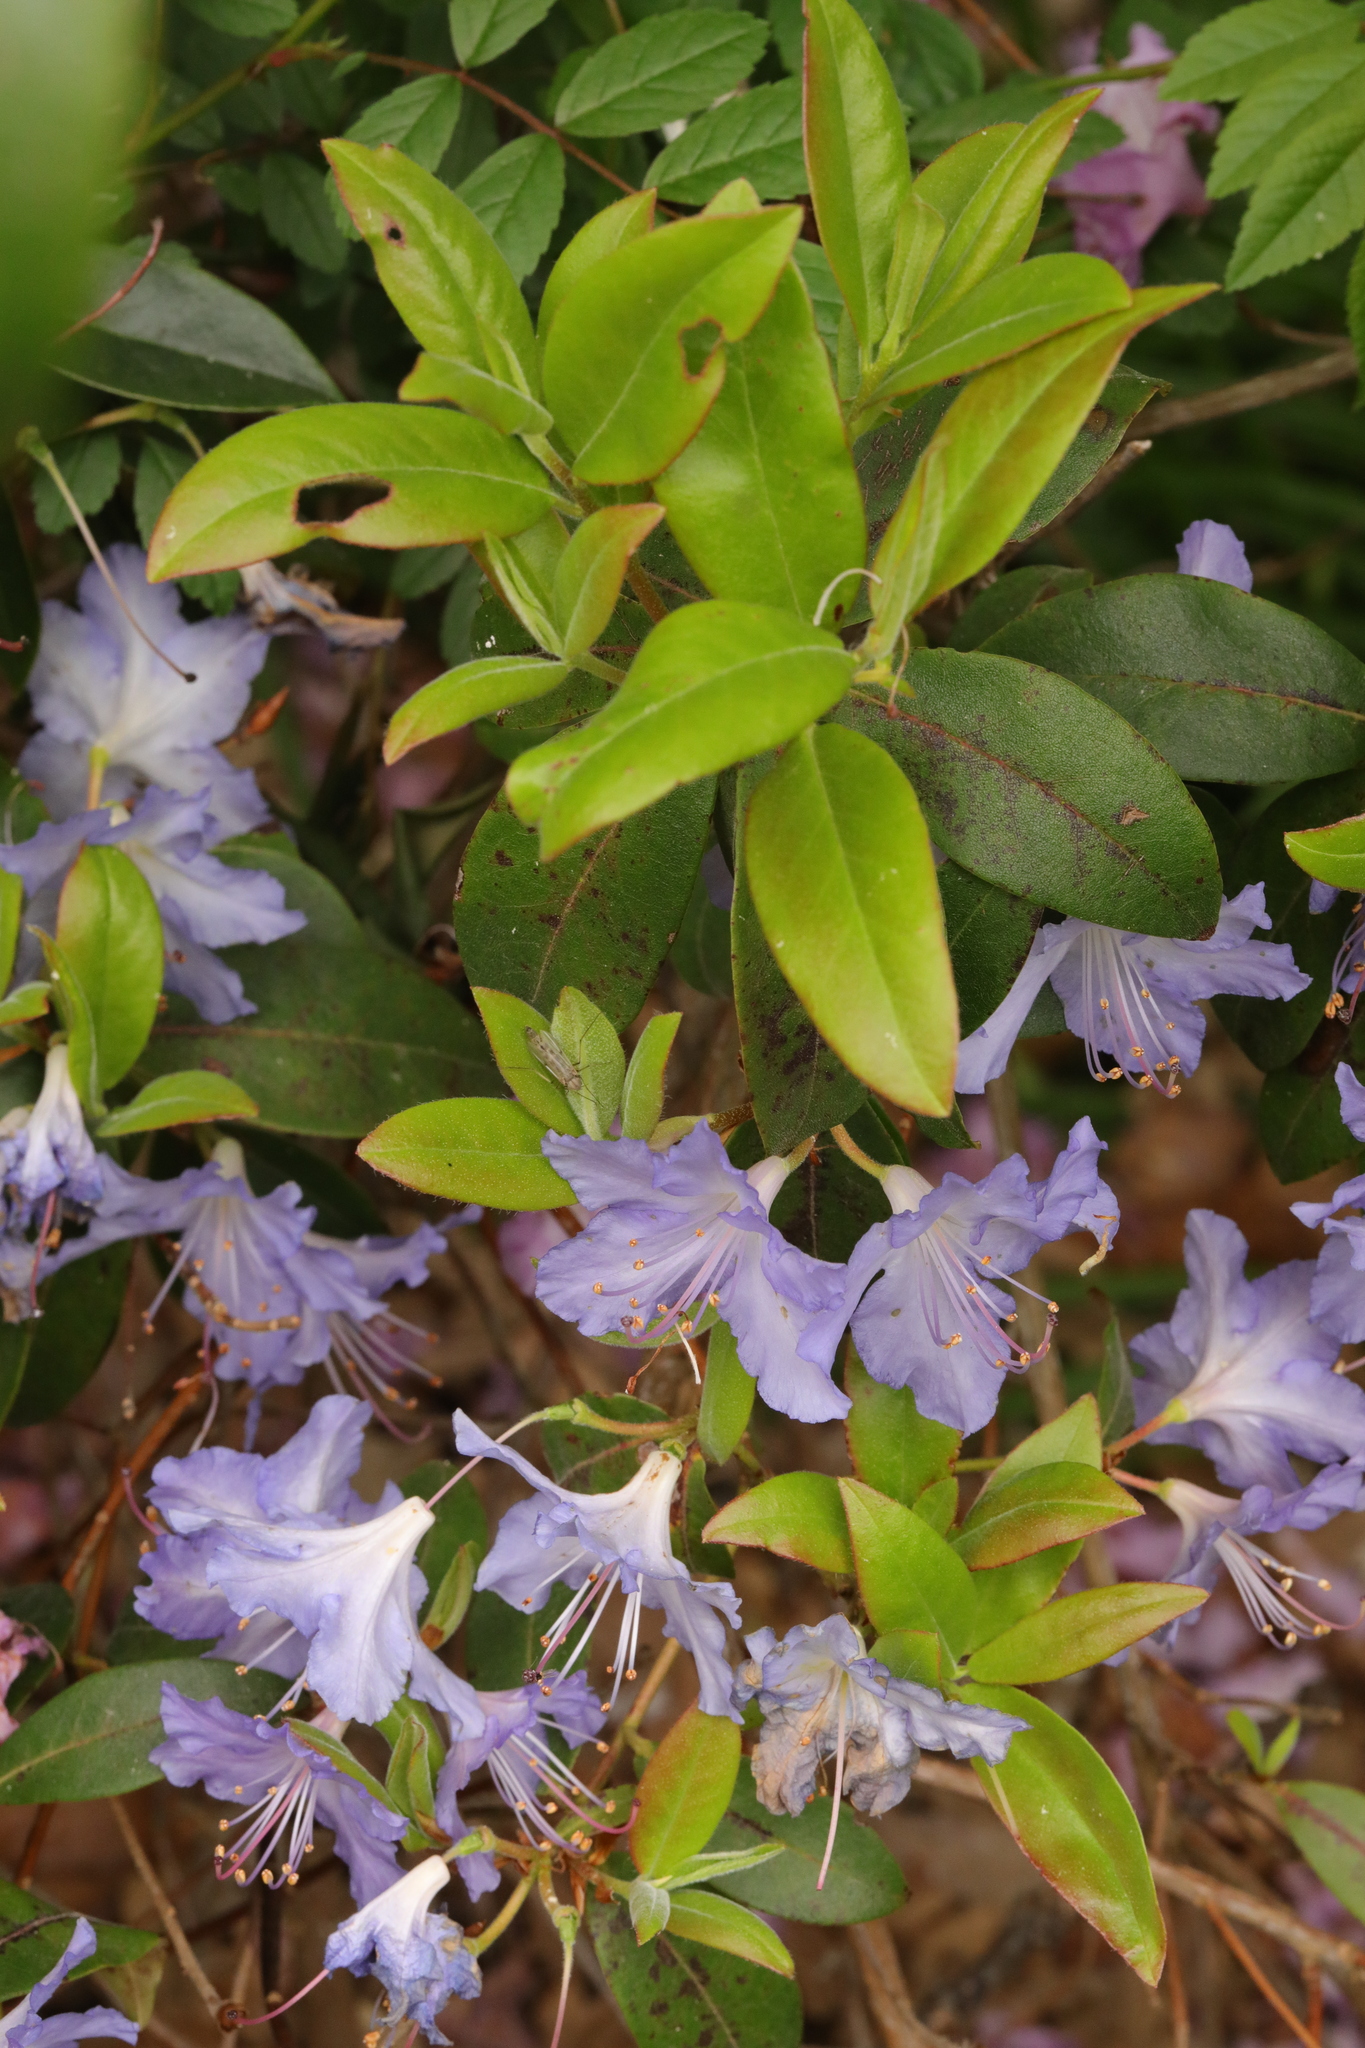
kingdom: Plantae
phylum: Tracheophyta
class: Magnoliopsida
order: Ericales
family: Ericaceae
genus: Rhododendron
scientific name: Rhododendron ponticum
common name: Rhododendron
